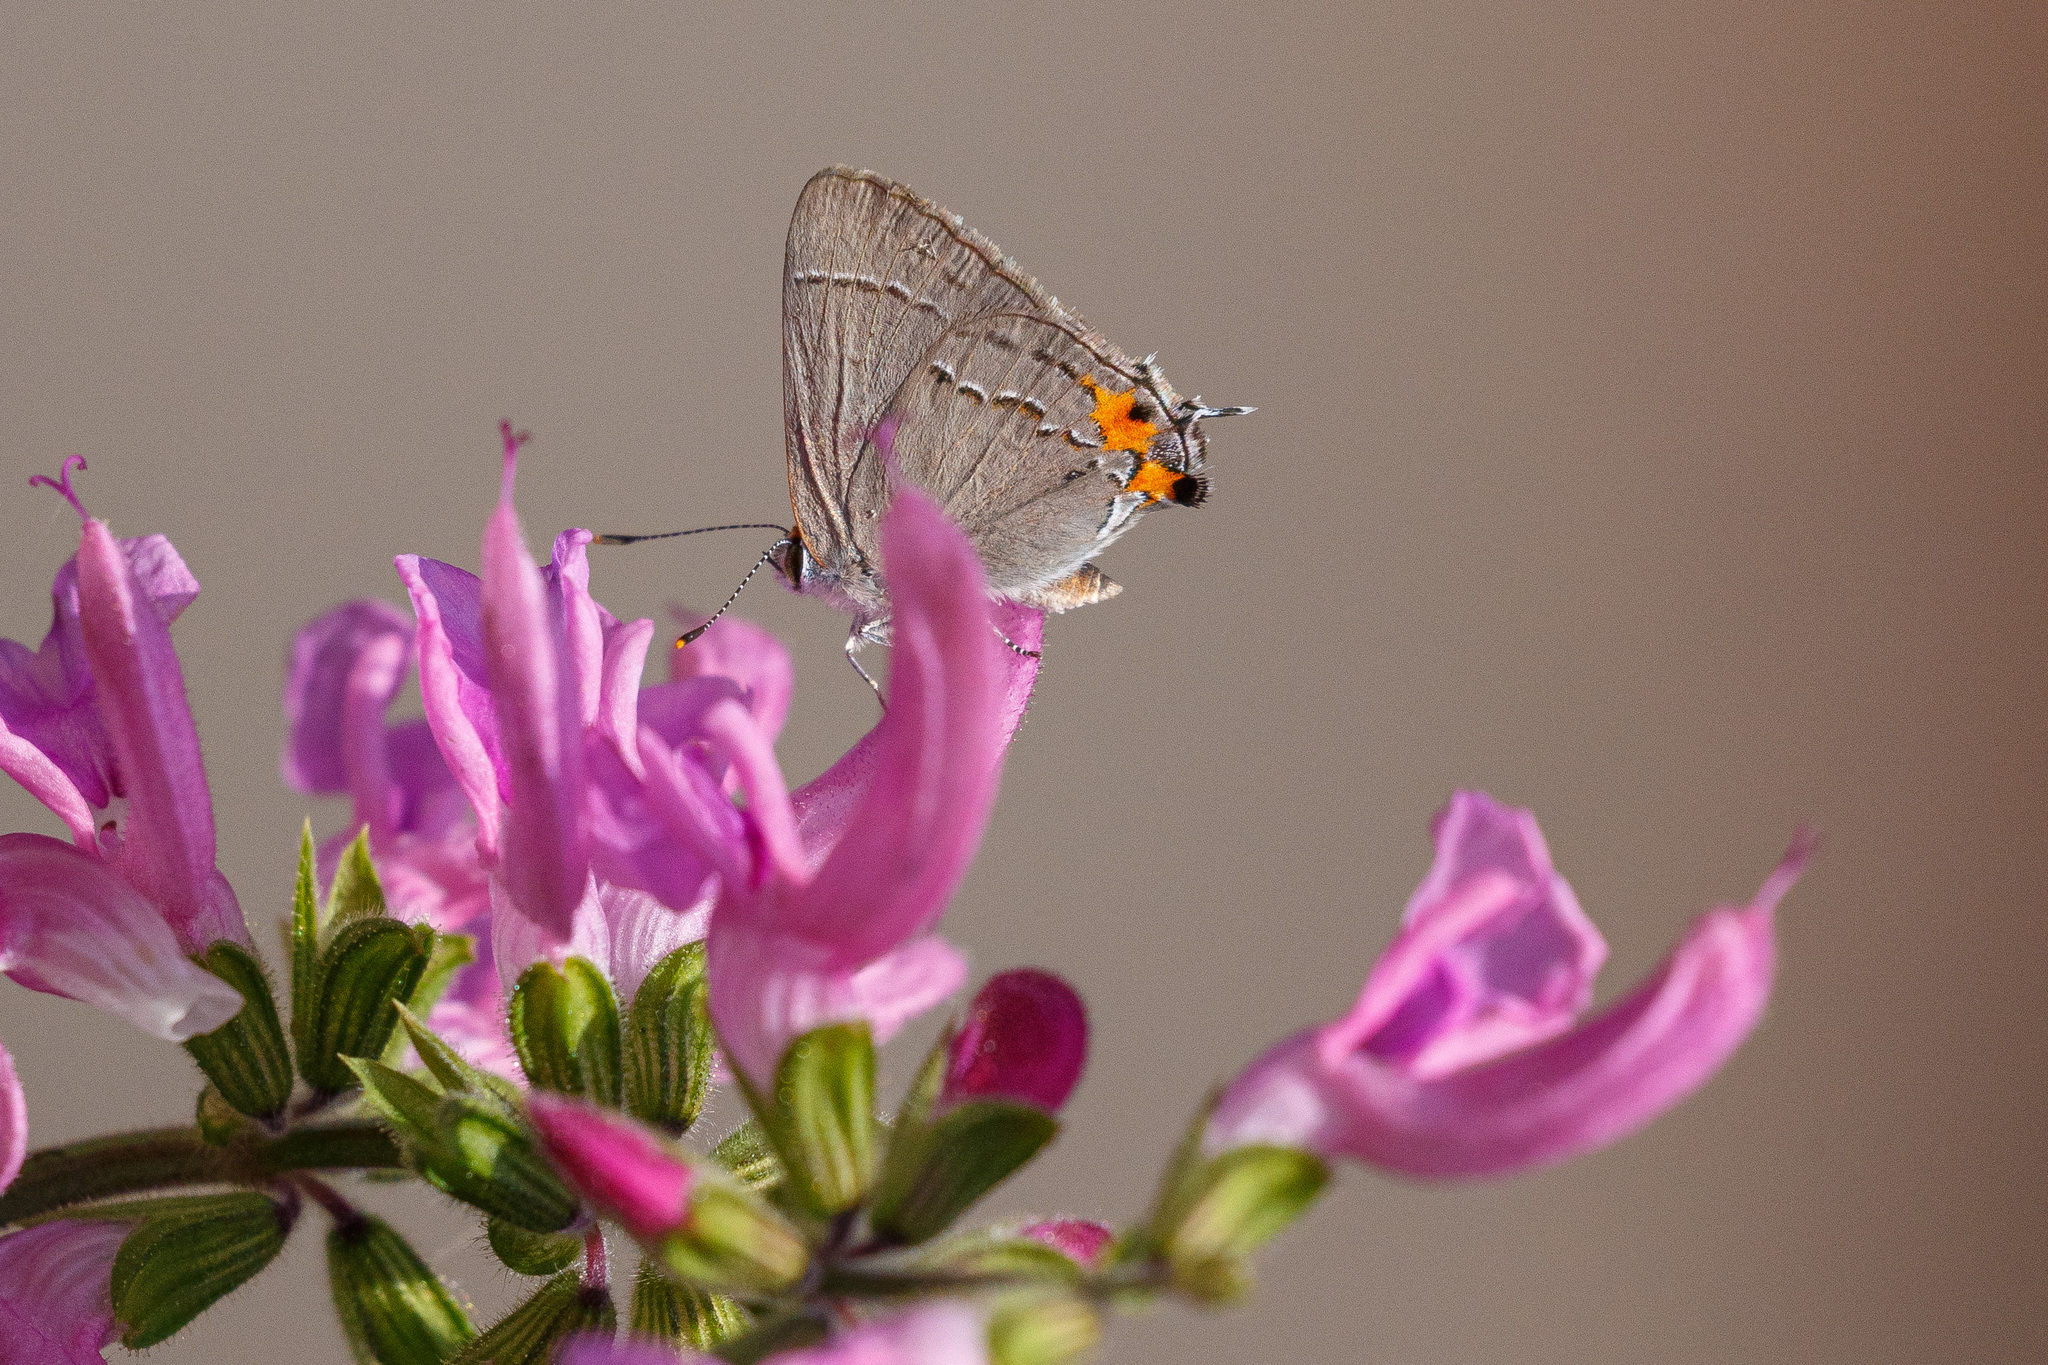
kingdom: Animalia
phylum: Arthropoda
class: Insecta
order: Lepidoptera
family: Lycaenidae
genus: Strymon
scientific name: Strymon melinus
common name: Gray hairstreak
